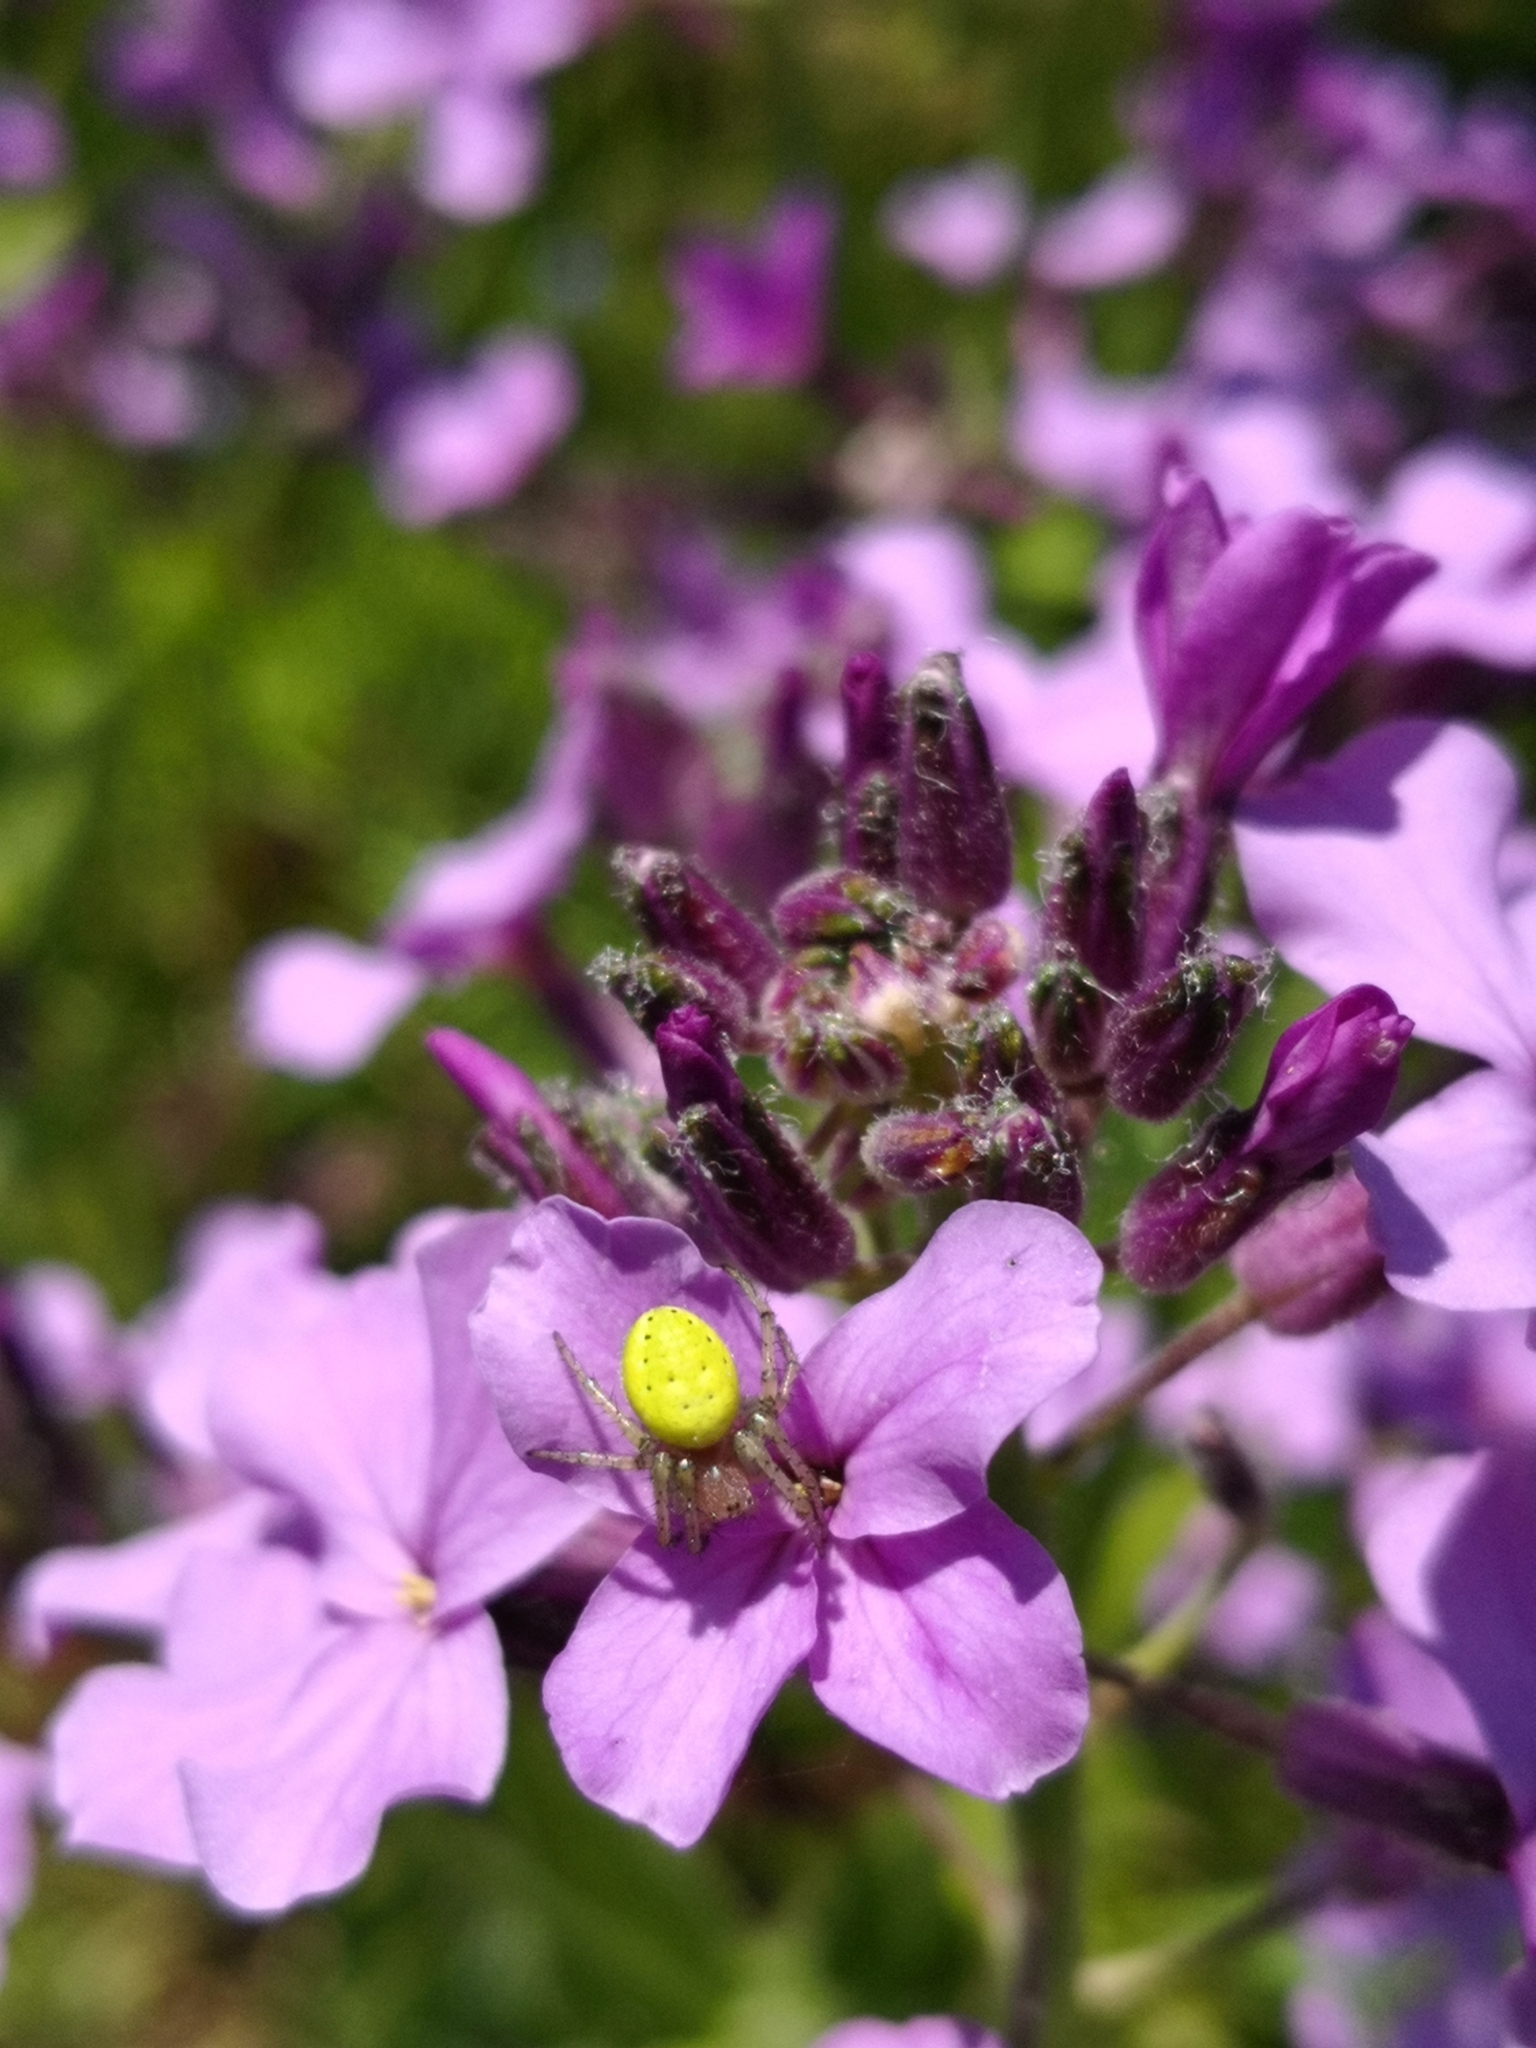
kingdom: Animalia
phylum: Arthropoda
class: Arachnida
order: Araneae
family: Araneidae
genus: Araniella
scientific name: Araniella
